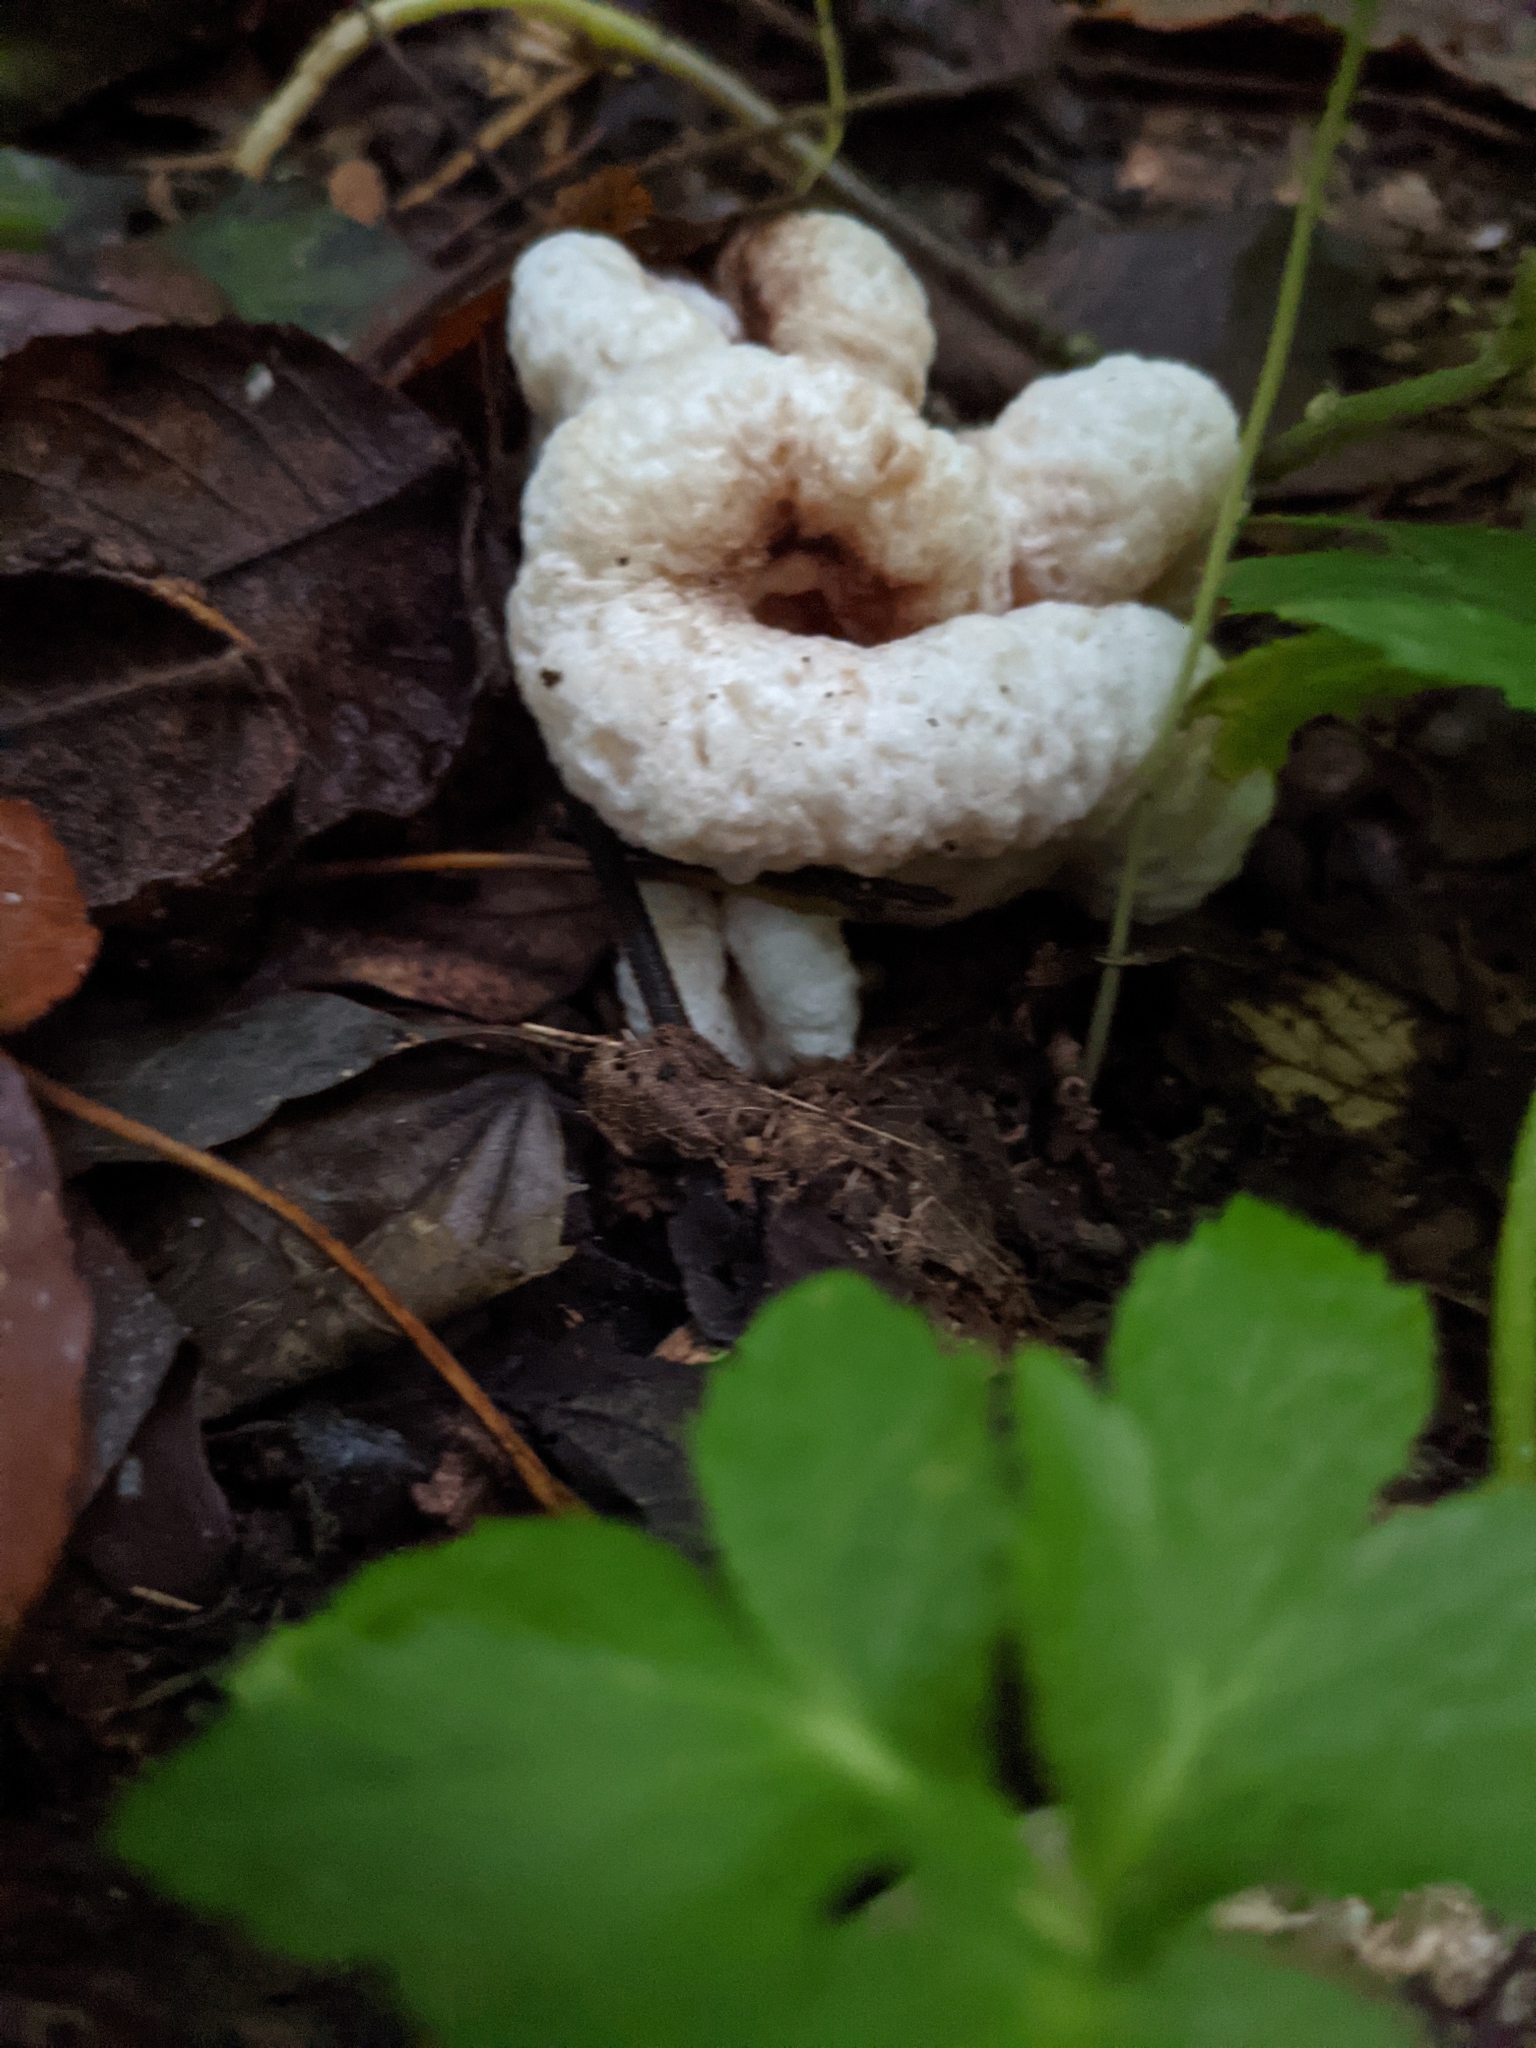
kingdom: Fungi
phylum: Basidiomycota
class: Agaricomycetes
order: Agaricales
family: Entolomataceae
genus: Entoloma
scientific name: Entoloma abortivum
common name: Aborted entoloma
